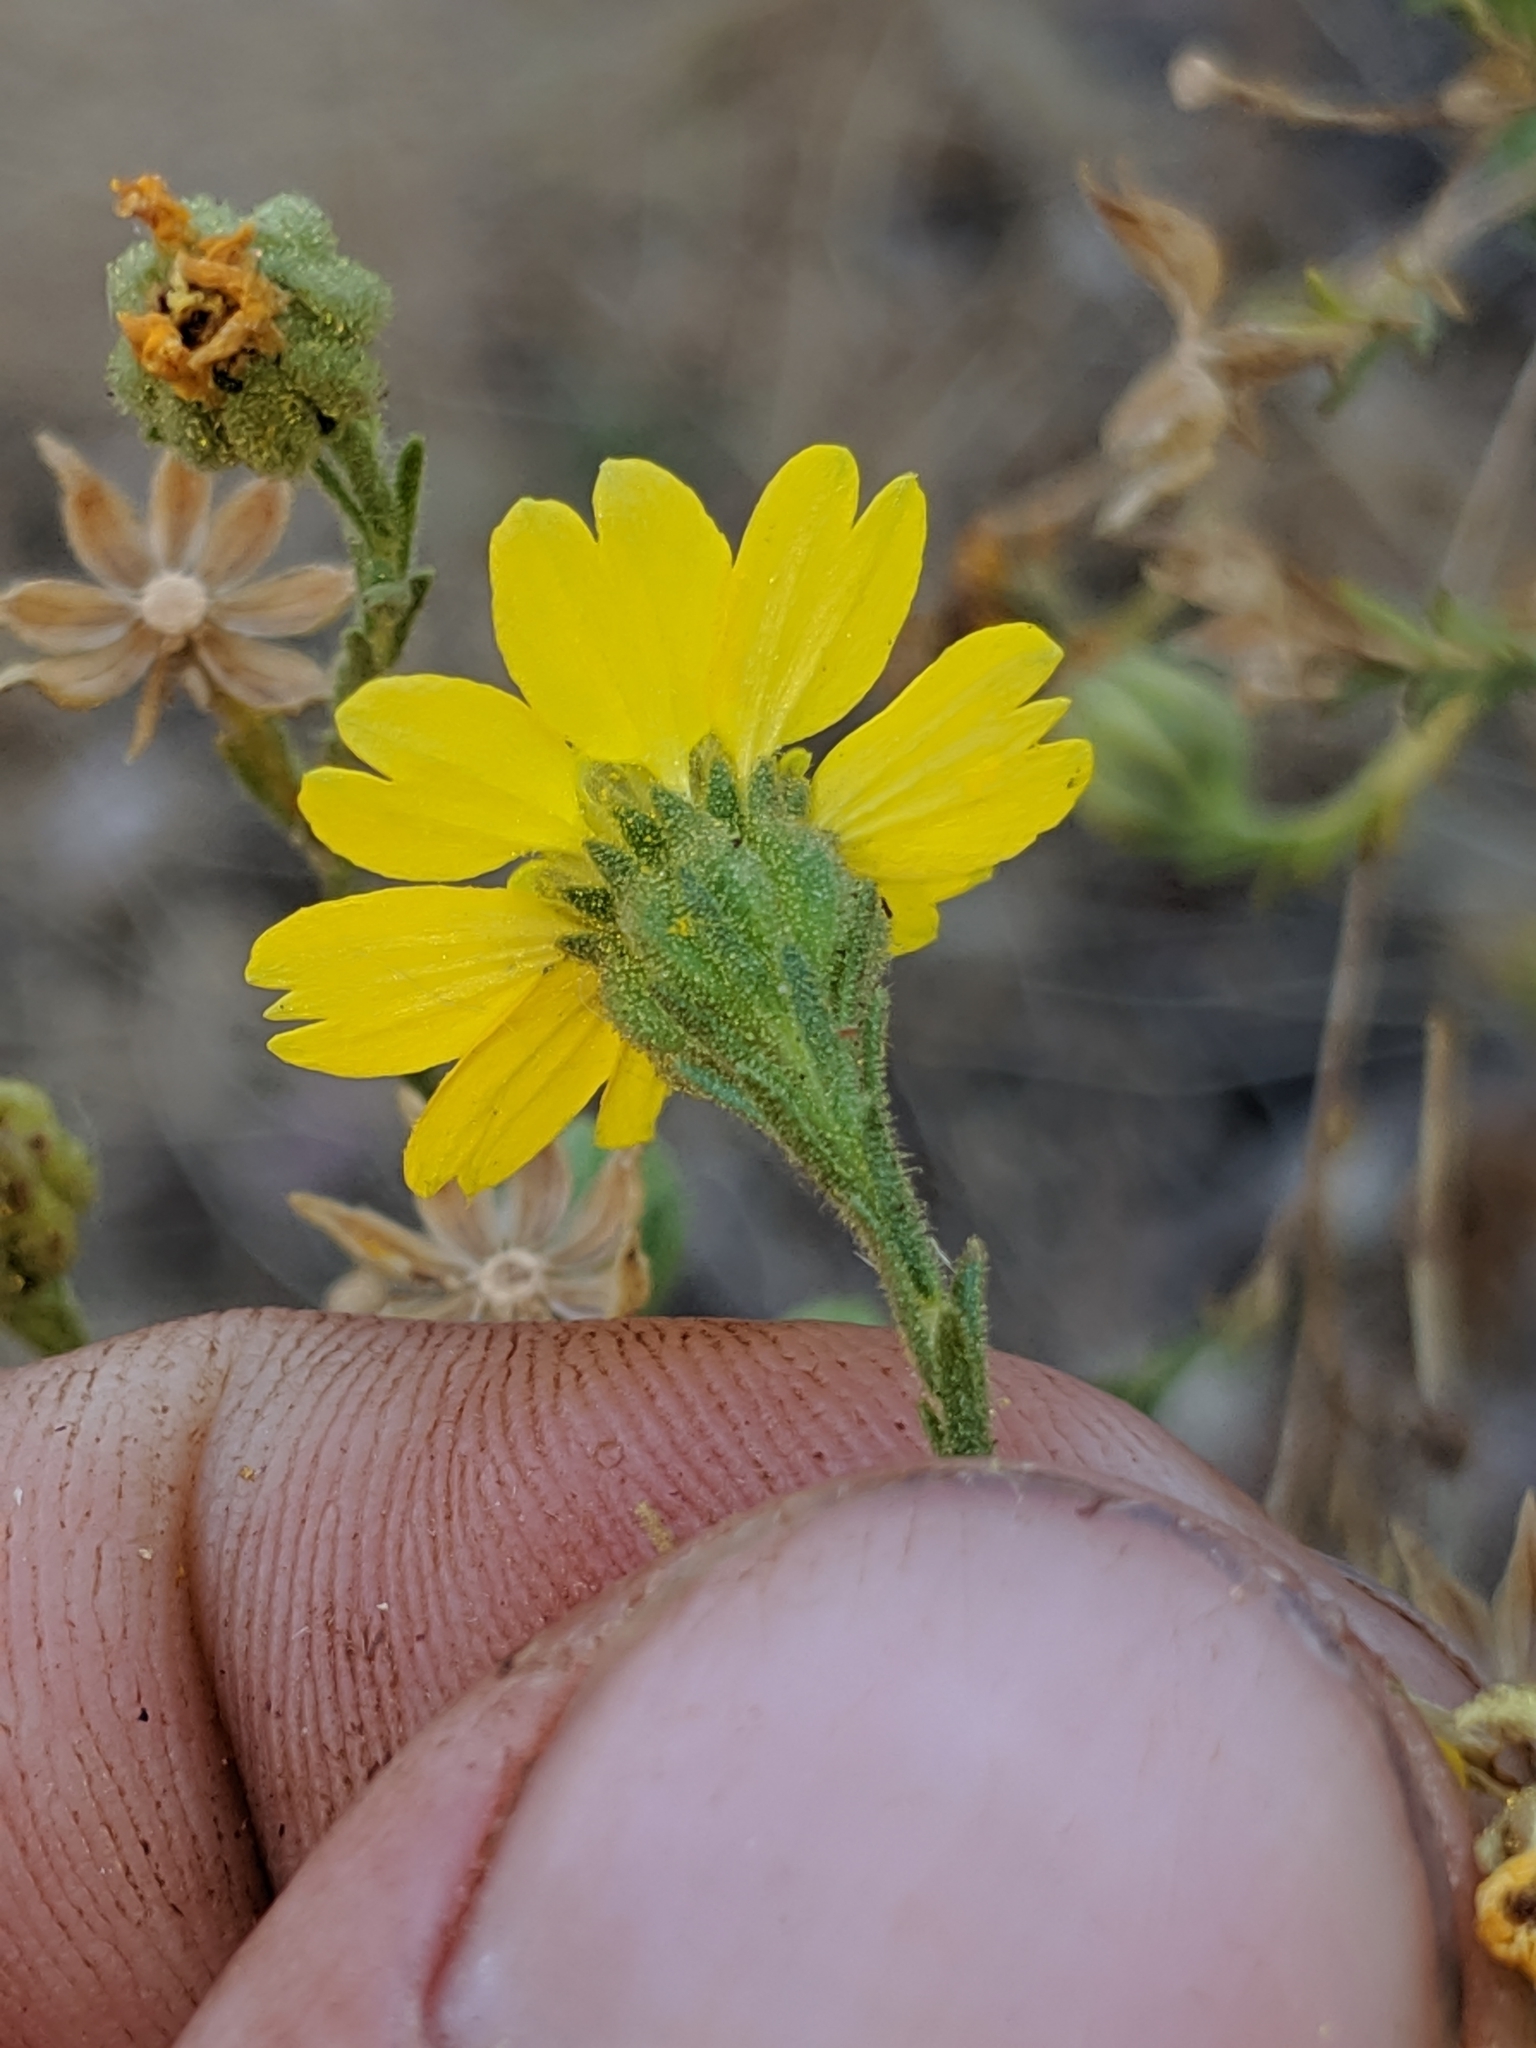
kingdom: Plantae
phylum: Tracheophyta
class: Magnoliopsida
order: Asterales
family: Asteraceae
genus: Deinandra
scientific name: Deinandra paniculata
